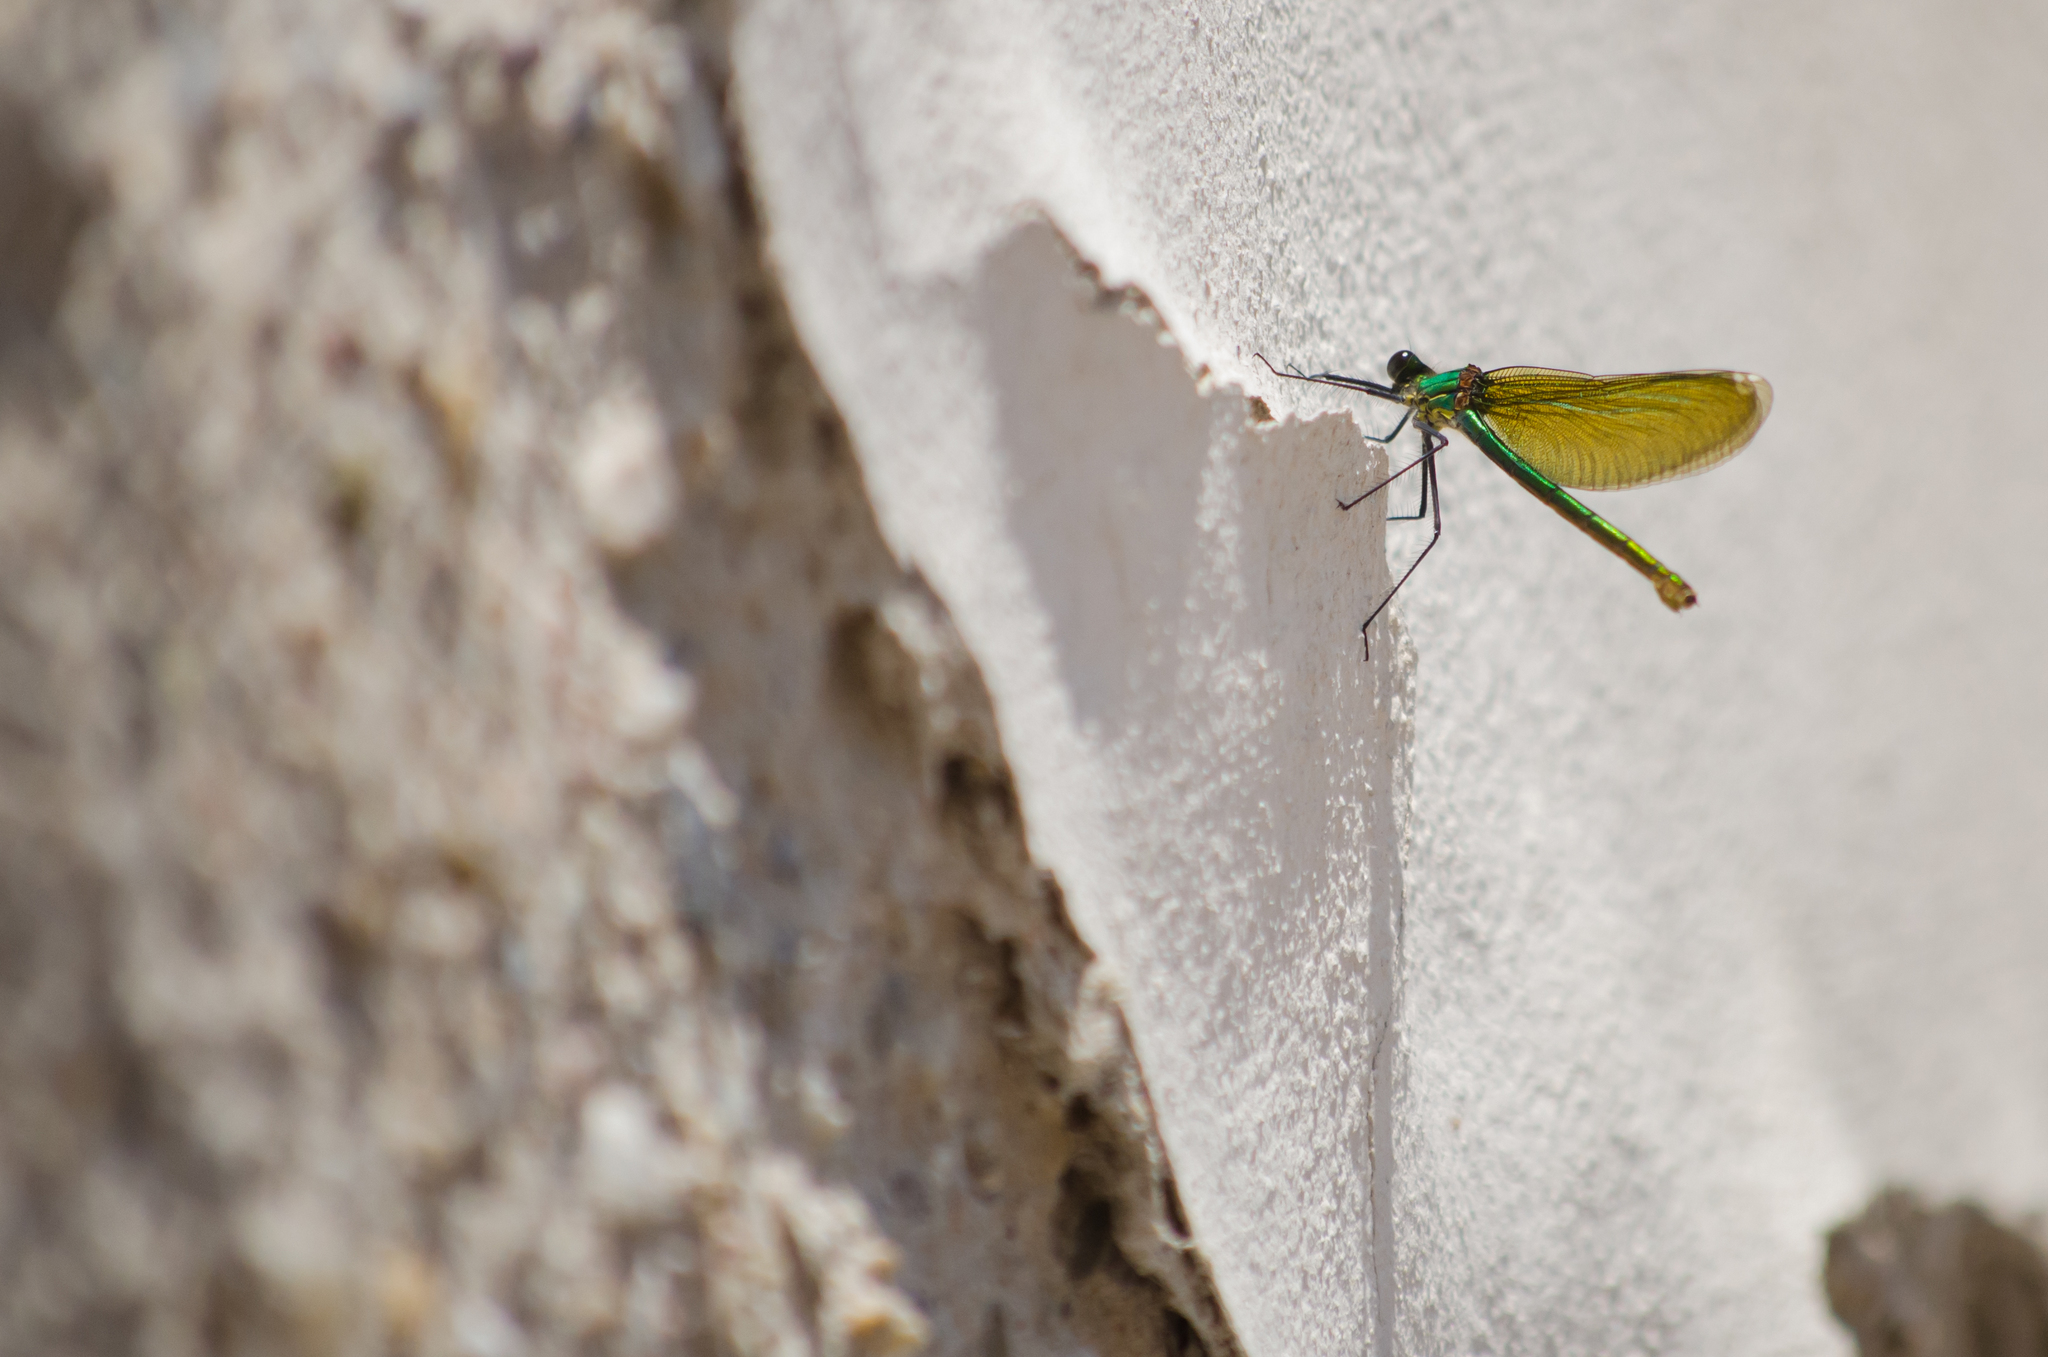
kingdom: Animalia
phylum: Arthropoda
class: Insecta
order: Odonata
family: Calopterygidae
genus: Calopteryx
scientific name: Calopteryx splendens
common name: Banded demoiselle
